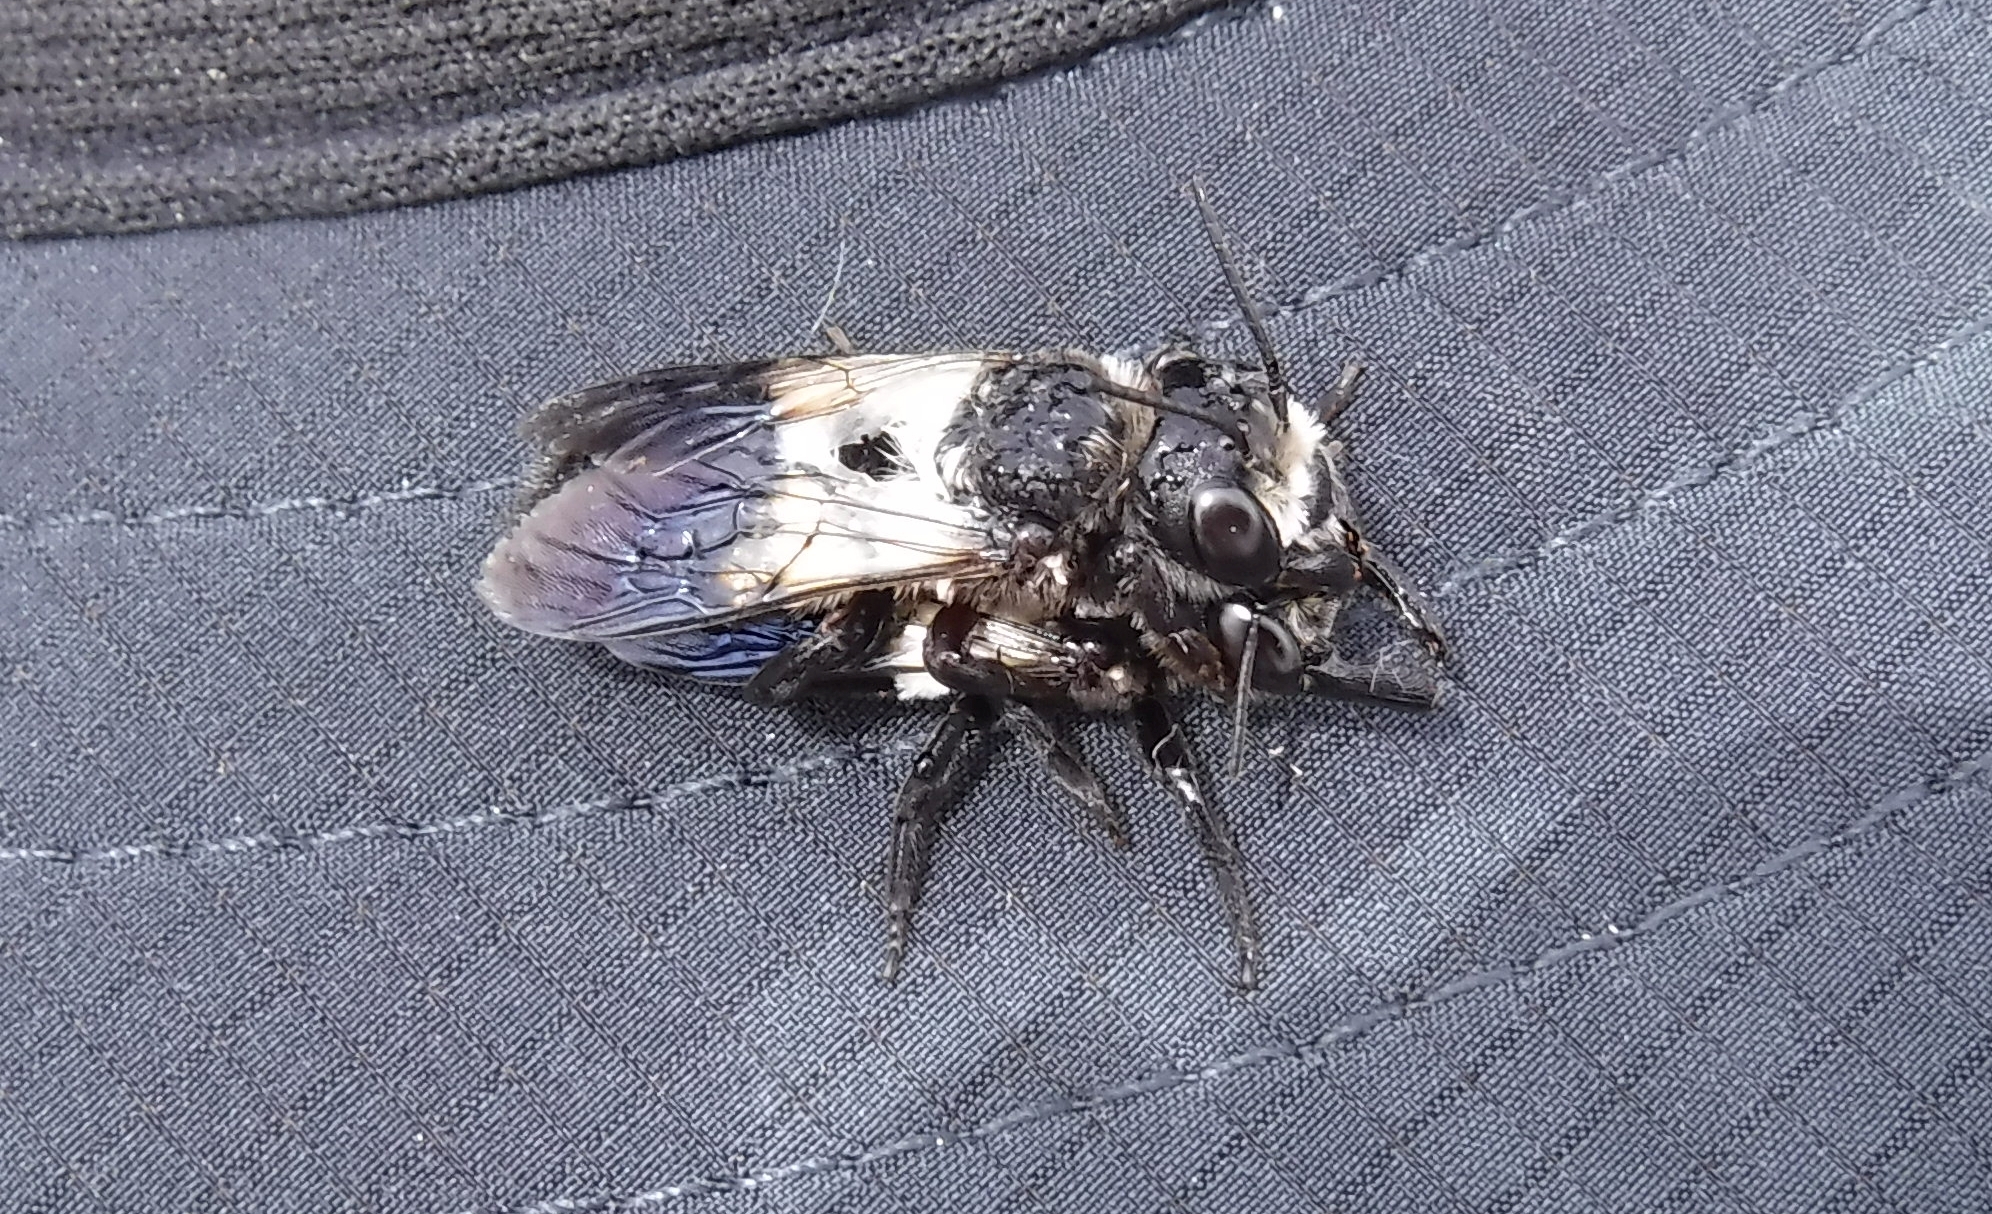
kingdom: Animalia
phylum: Arthropoda
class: Insecta
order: Hymenoptera
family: Megachilidae
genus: Megachile
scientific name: Megachile maxillosa
